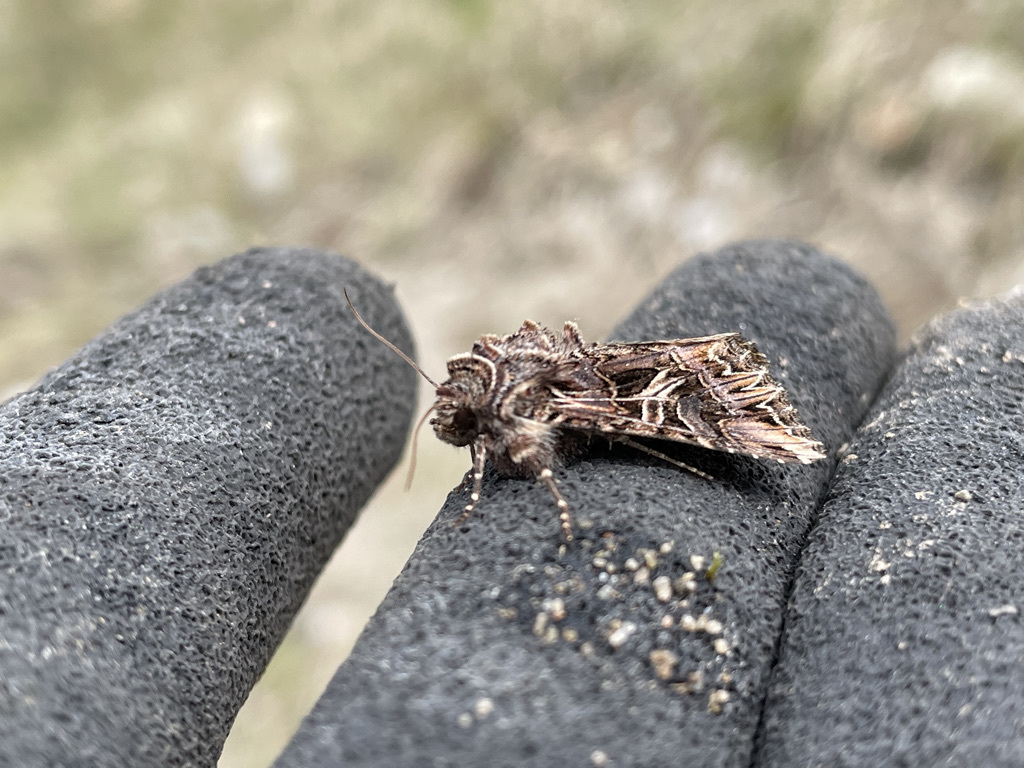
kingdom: Animalia
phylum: Arthropoda
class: Insecta
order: Lepidoptera
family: Noctuidae
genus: Anarta
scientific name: Anarta farnhami
